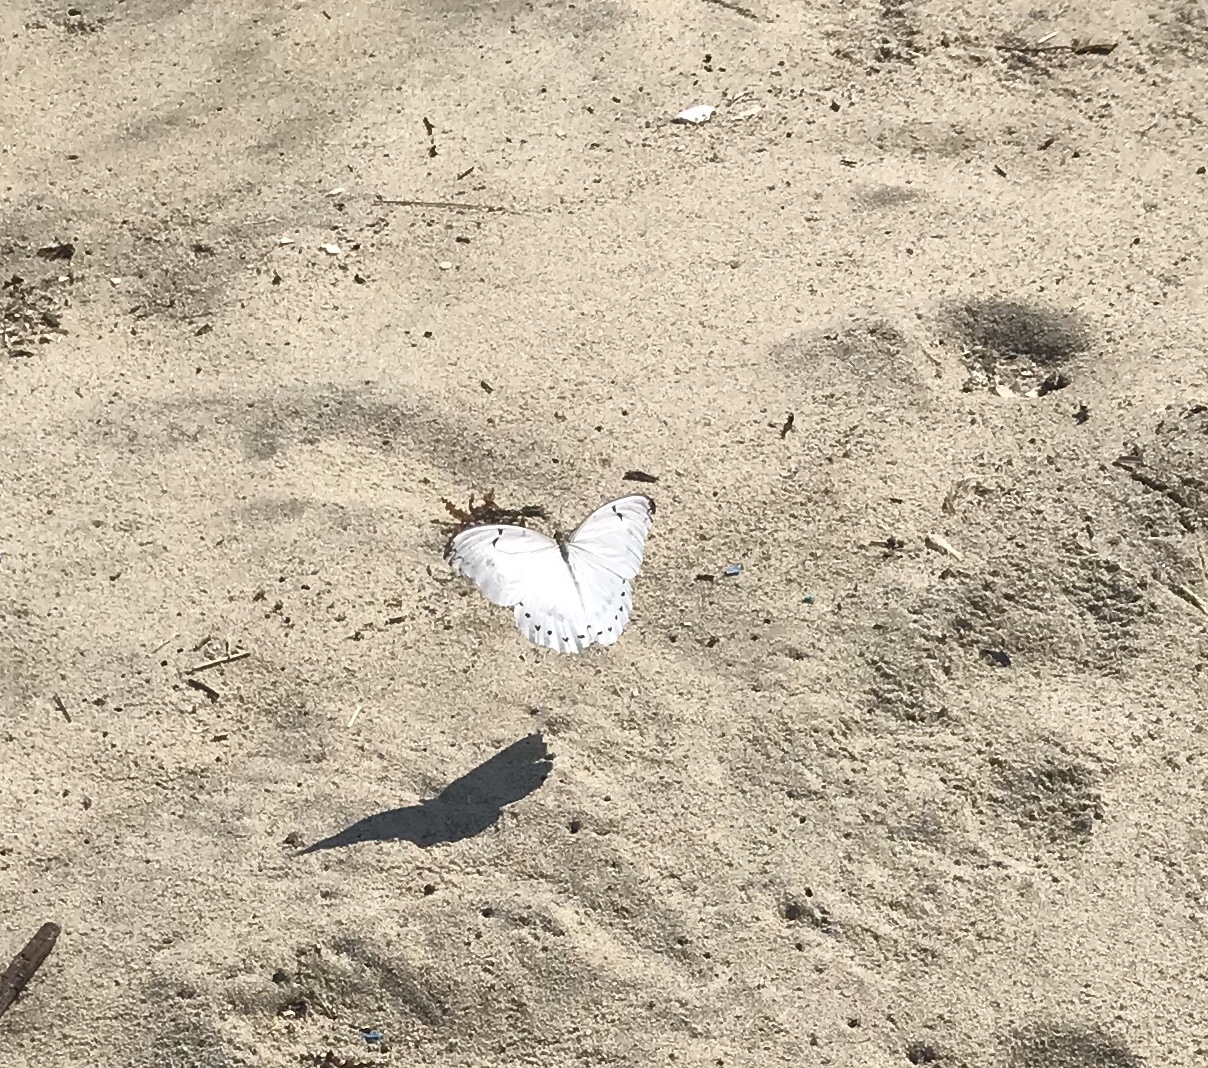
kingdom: Animalia
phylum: Arthropoda
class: Insecta
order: Lepidoptera
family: Nymphalidae
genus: Morpho
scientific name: Morpho polyphemus
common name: White morpho
